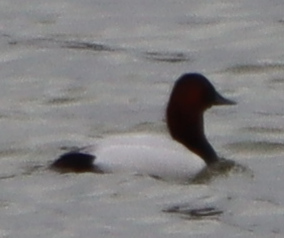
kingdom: Animalia
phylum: Chordata
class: Aves
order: Anseriformes
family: Anatidae
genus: Aythya
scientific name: Aythya valisineria
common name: Canvasback
